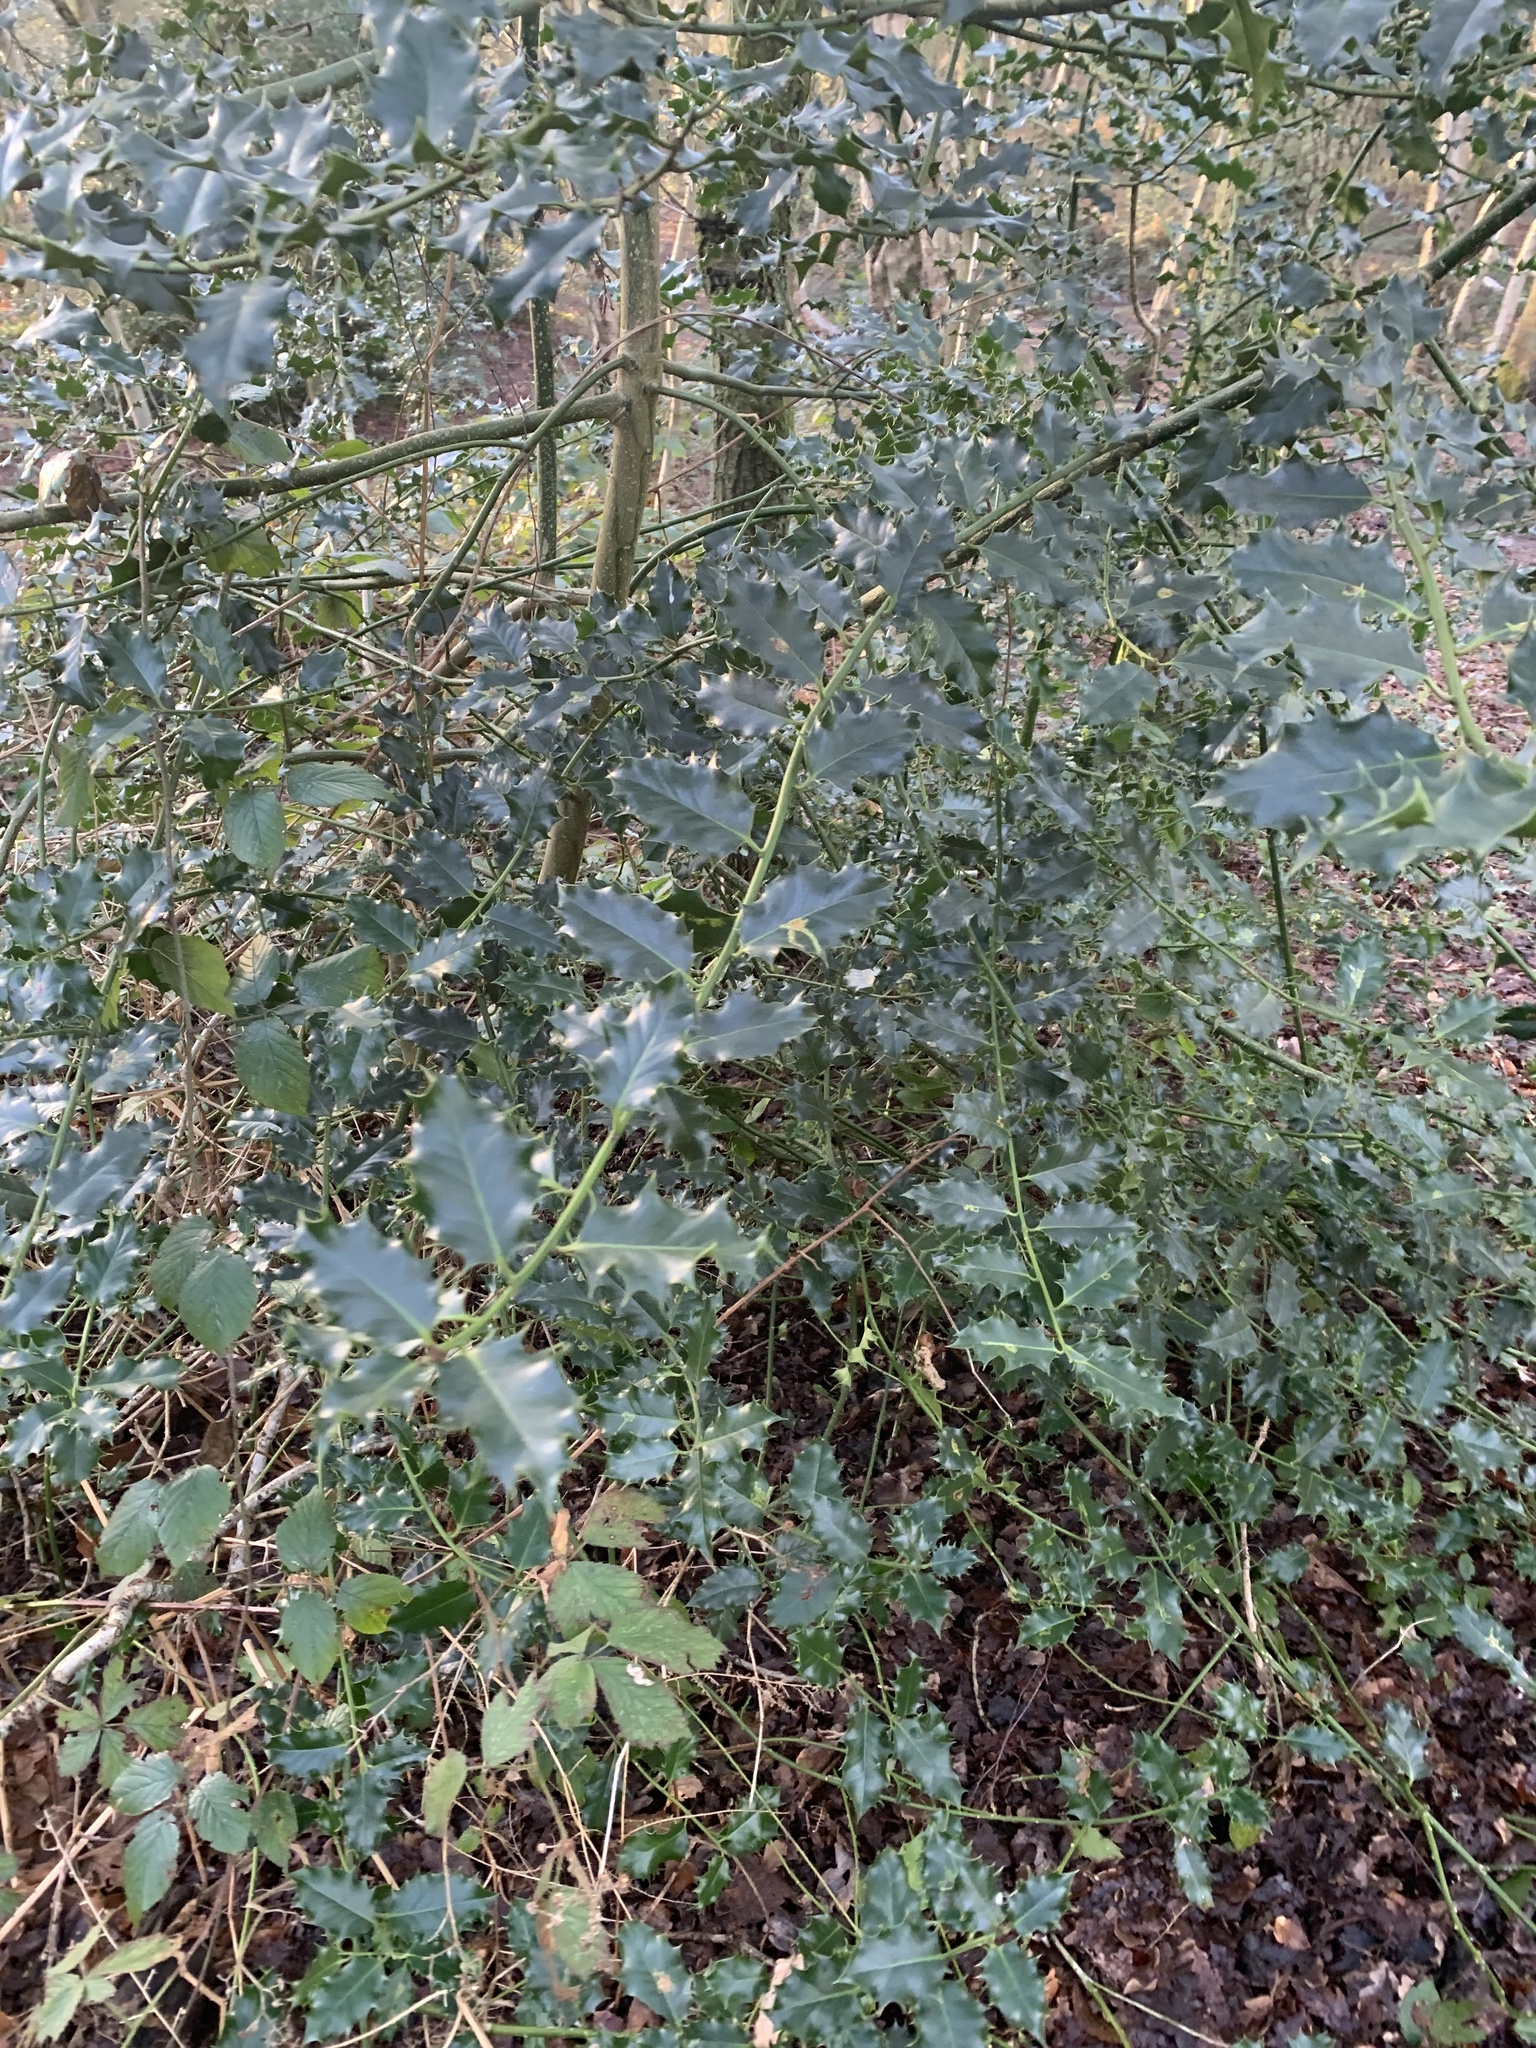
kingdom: Plantae
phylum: Tracheophyta
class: Magnoliopsida
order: Aquifoliales
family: Aquifoliaceae
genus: Ilex
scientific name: Ilex aquifolium
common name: English holly
